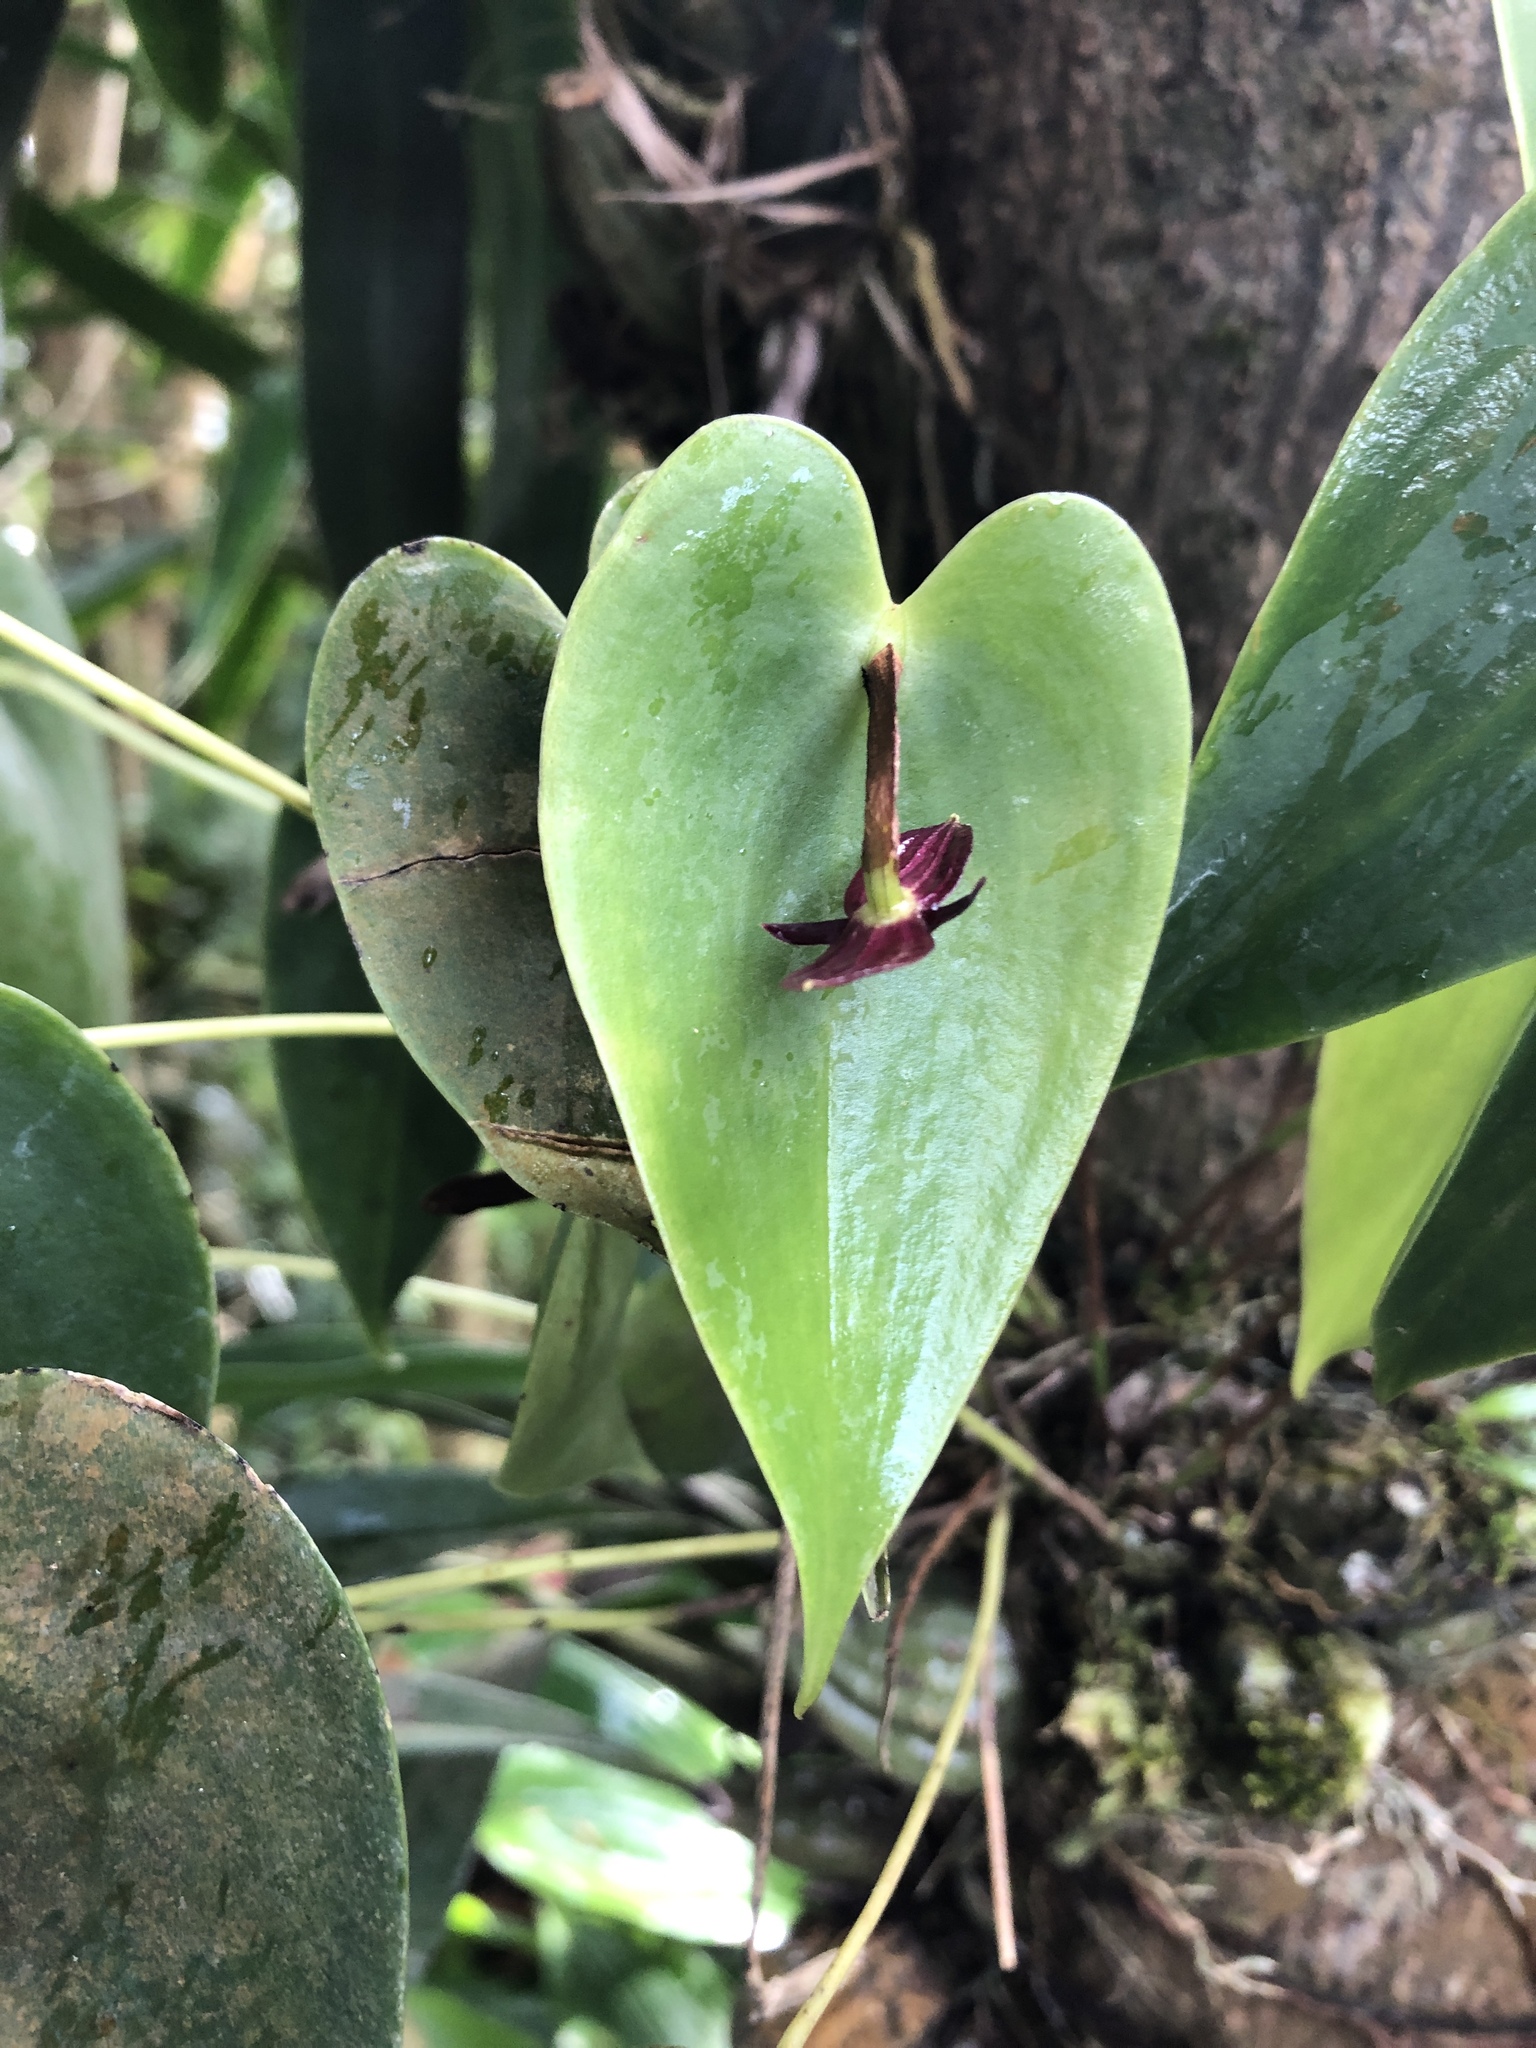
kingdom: Plantae
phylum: Tracheophyta
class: Liliopsida
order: Asparagales
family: Orchidaceae
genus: Pleurothallis
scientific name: Pleurothallis phyllocardia
